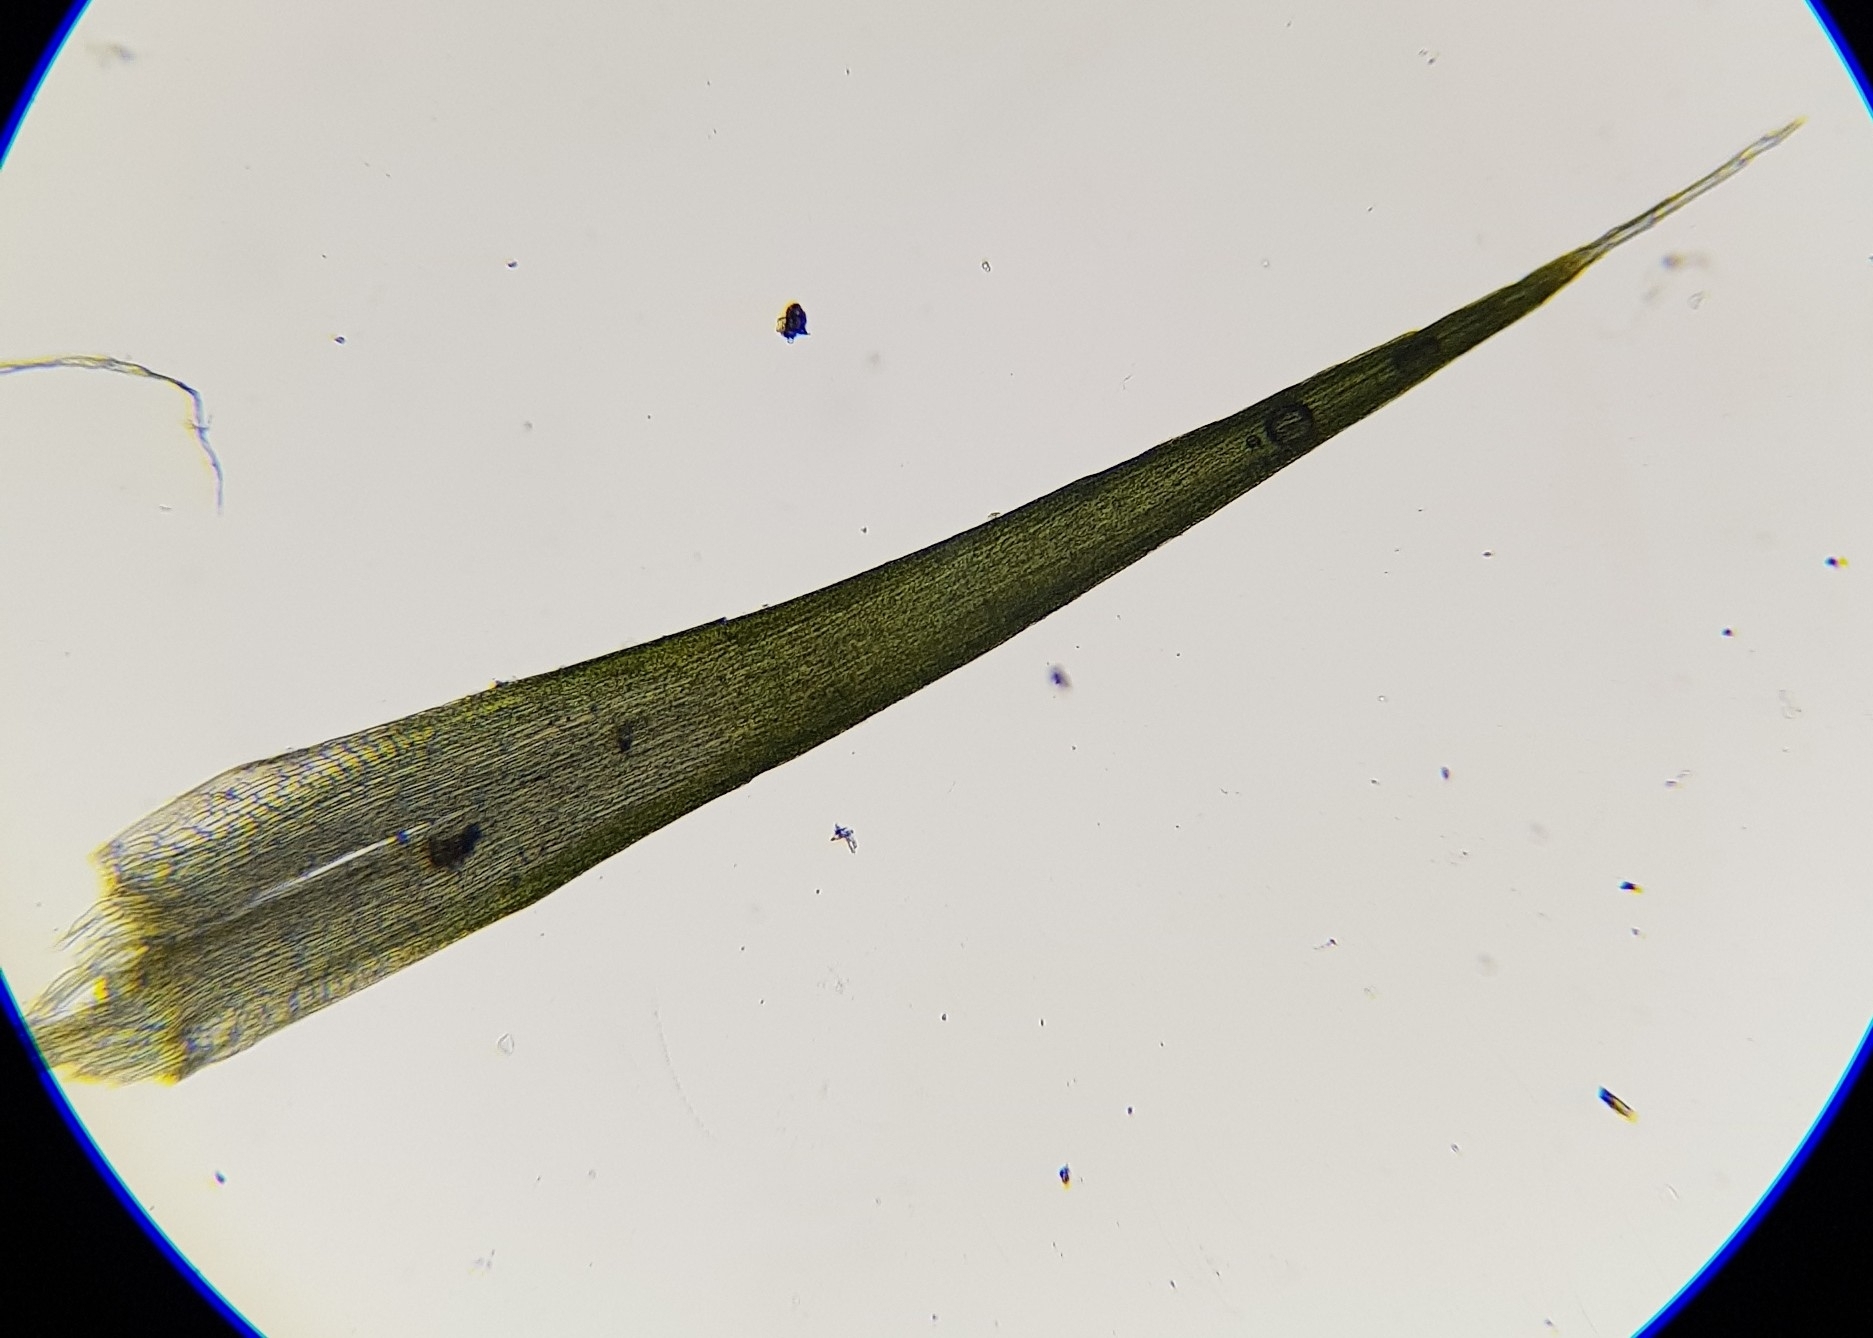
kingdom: Plantae
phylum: Bryophyta
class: Bryopsida
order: Dicranales
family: Leucobryaceae
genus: Campylopus
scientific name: Campylopus introflexus
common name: Heath star moss
